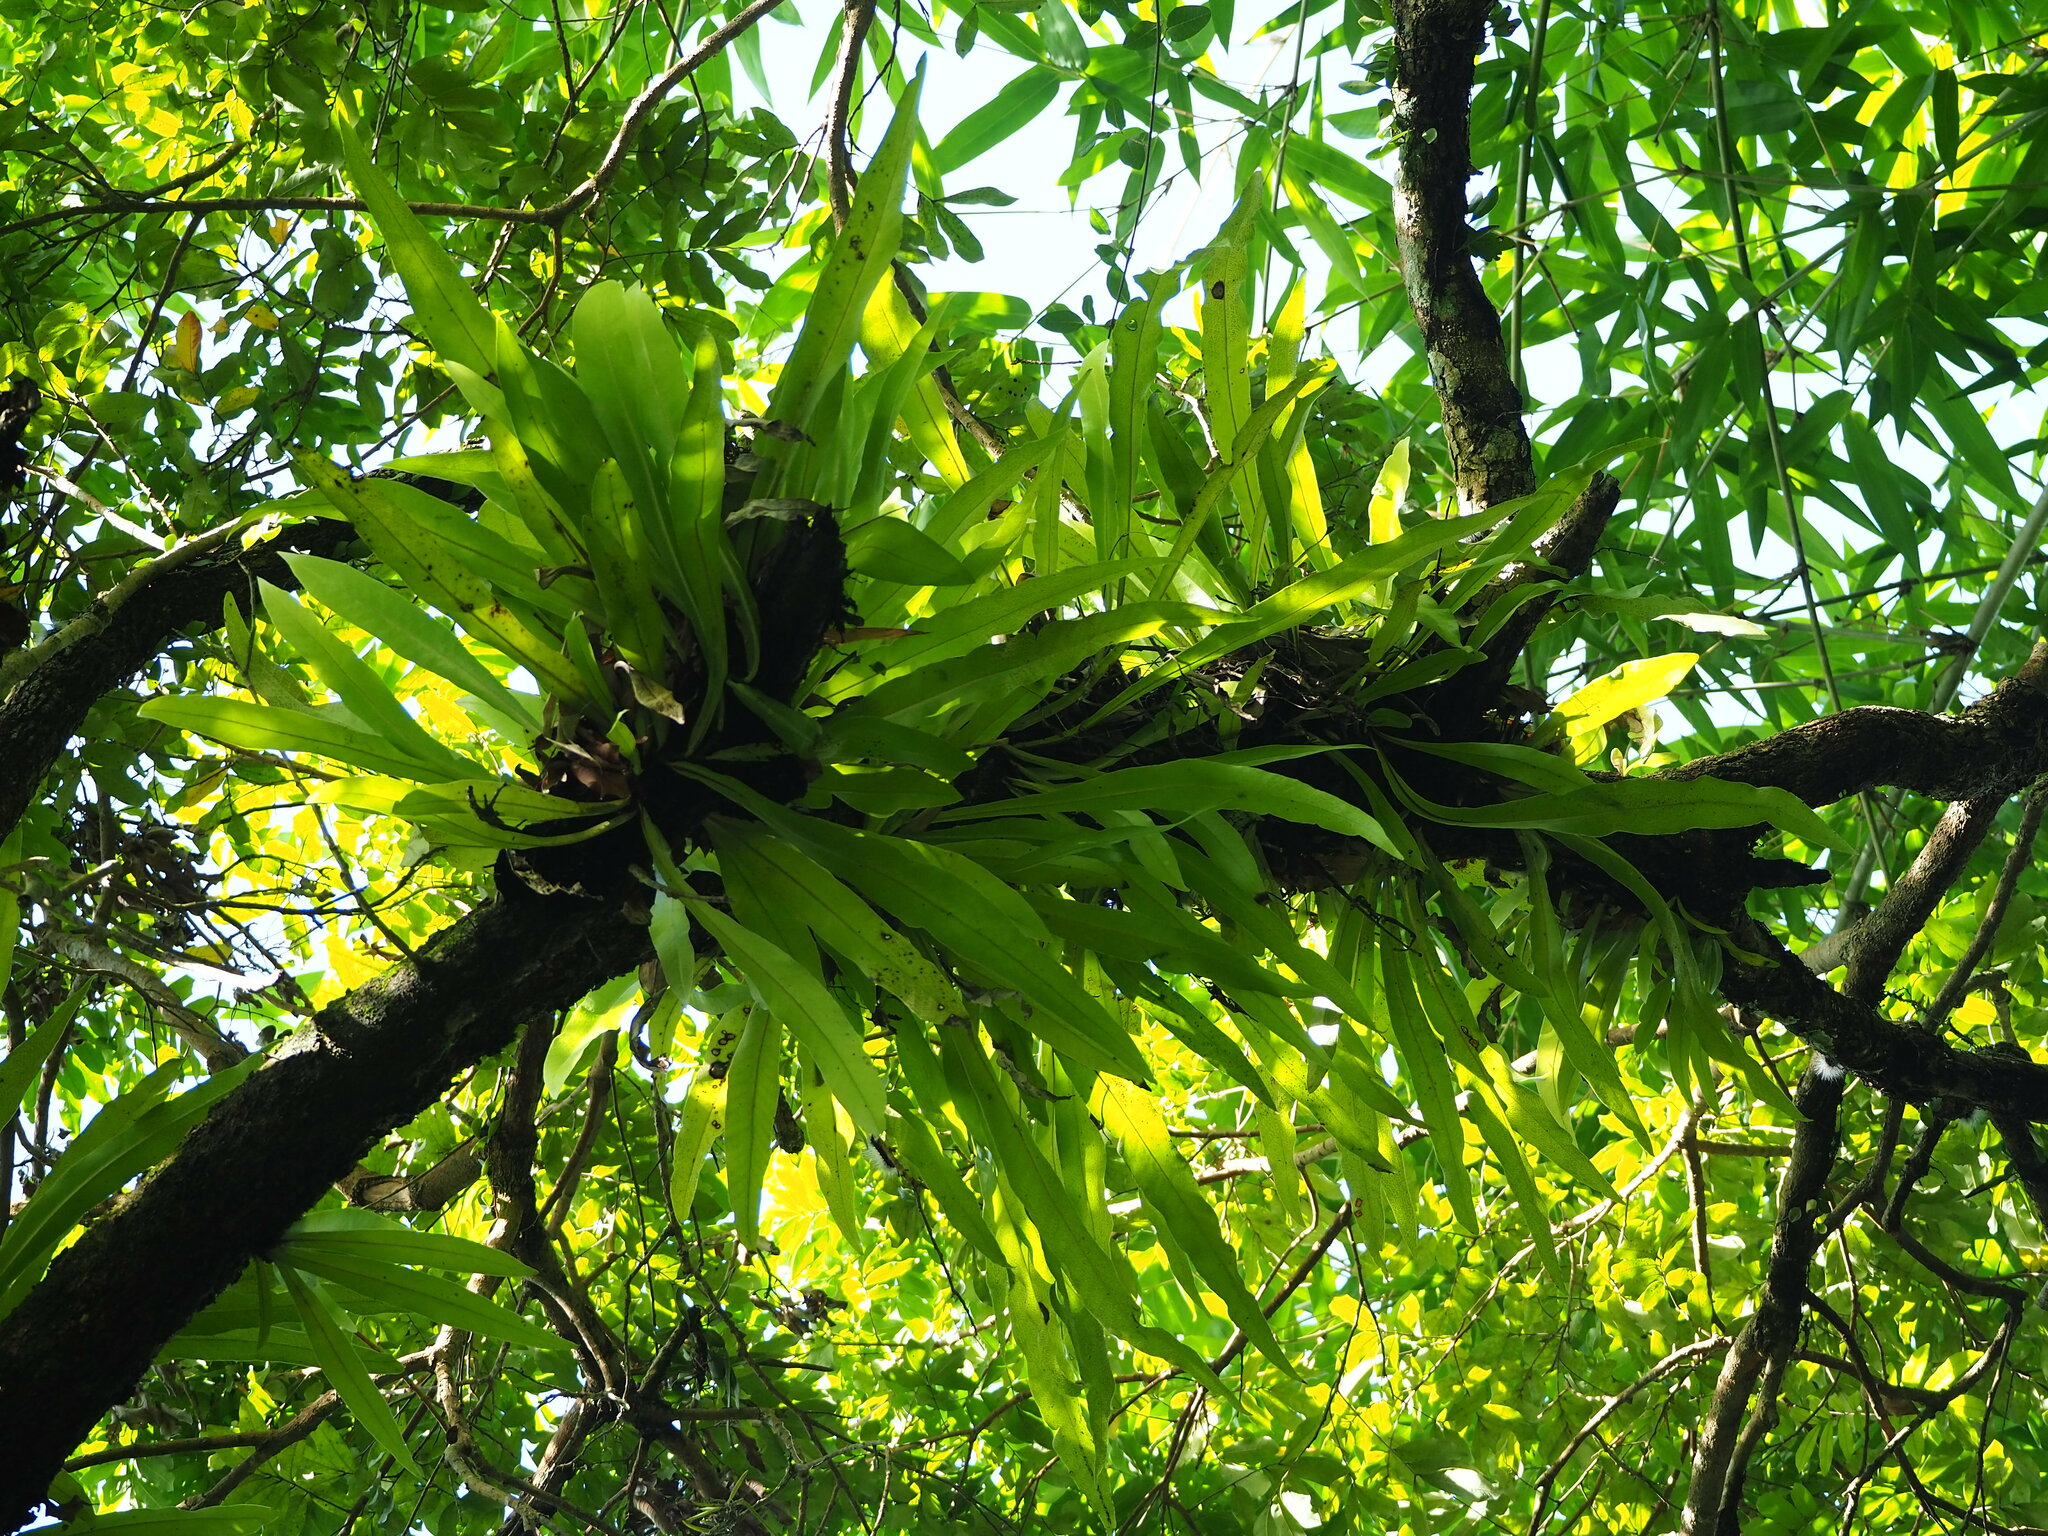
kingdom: Plantae
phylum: Tracheophyta
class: Polypodiopsida
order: Polypodiales
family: Polypodiaceae
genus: Microsorum
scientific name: Microsorum punctatum
